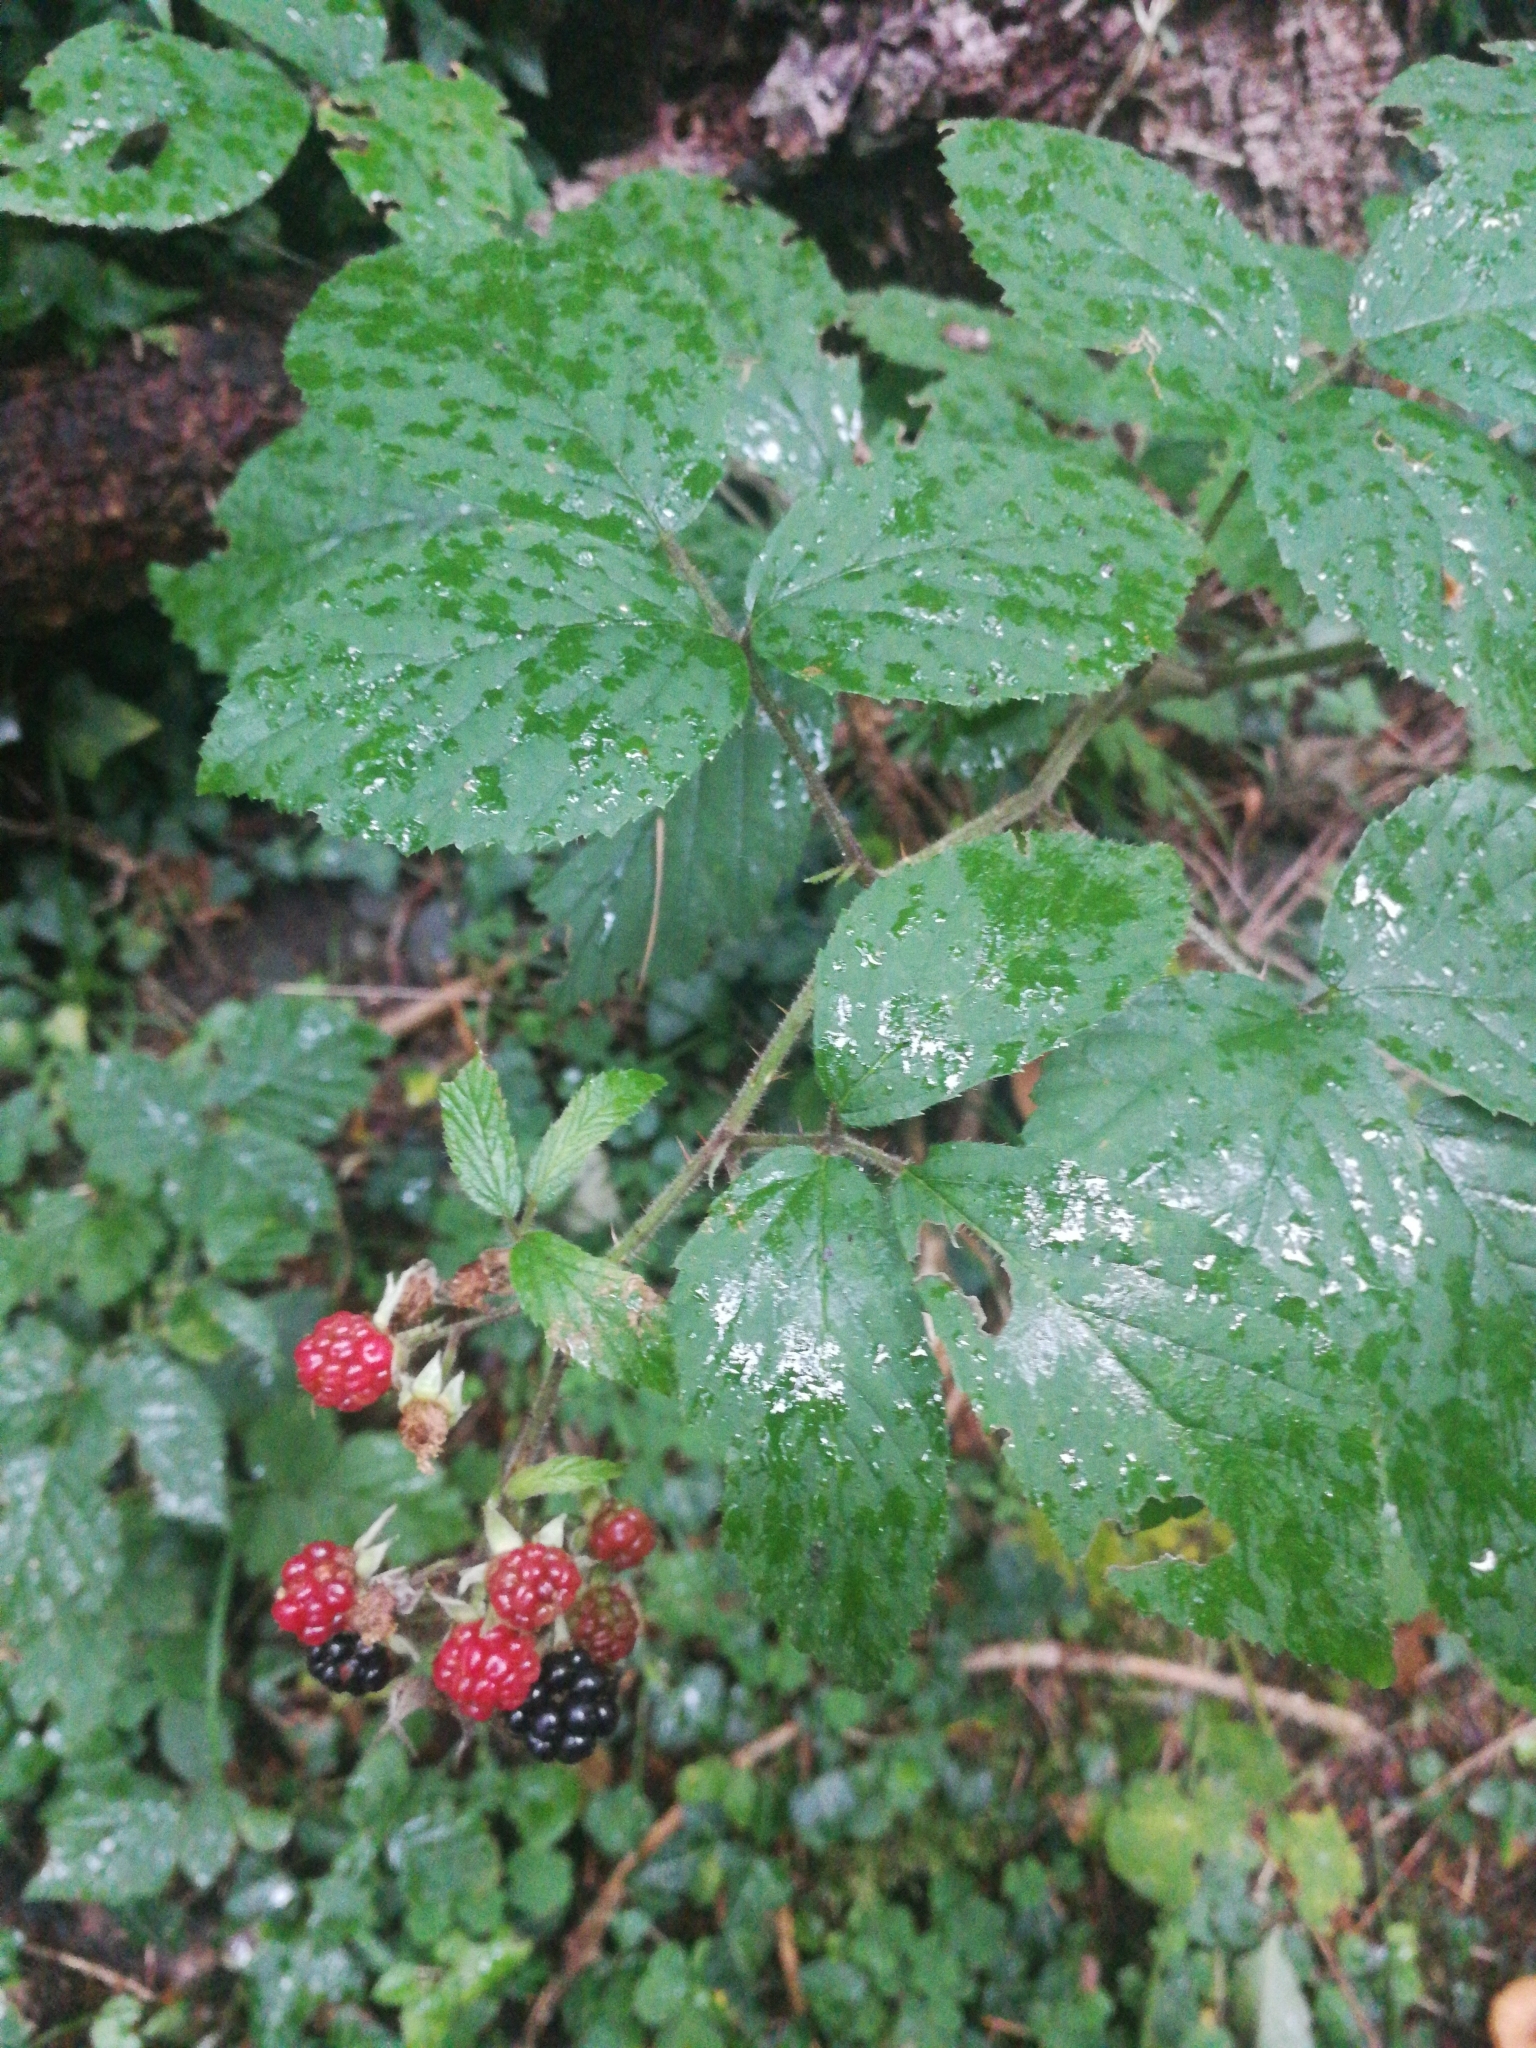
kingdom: Plantae
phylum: Tracheophyta
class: Magnoliopsida
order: Rosales
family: Rosaceae
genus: Rubus
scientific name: Rubus
